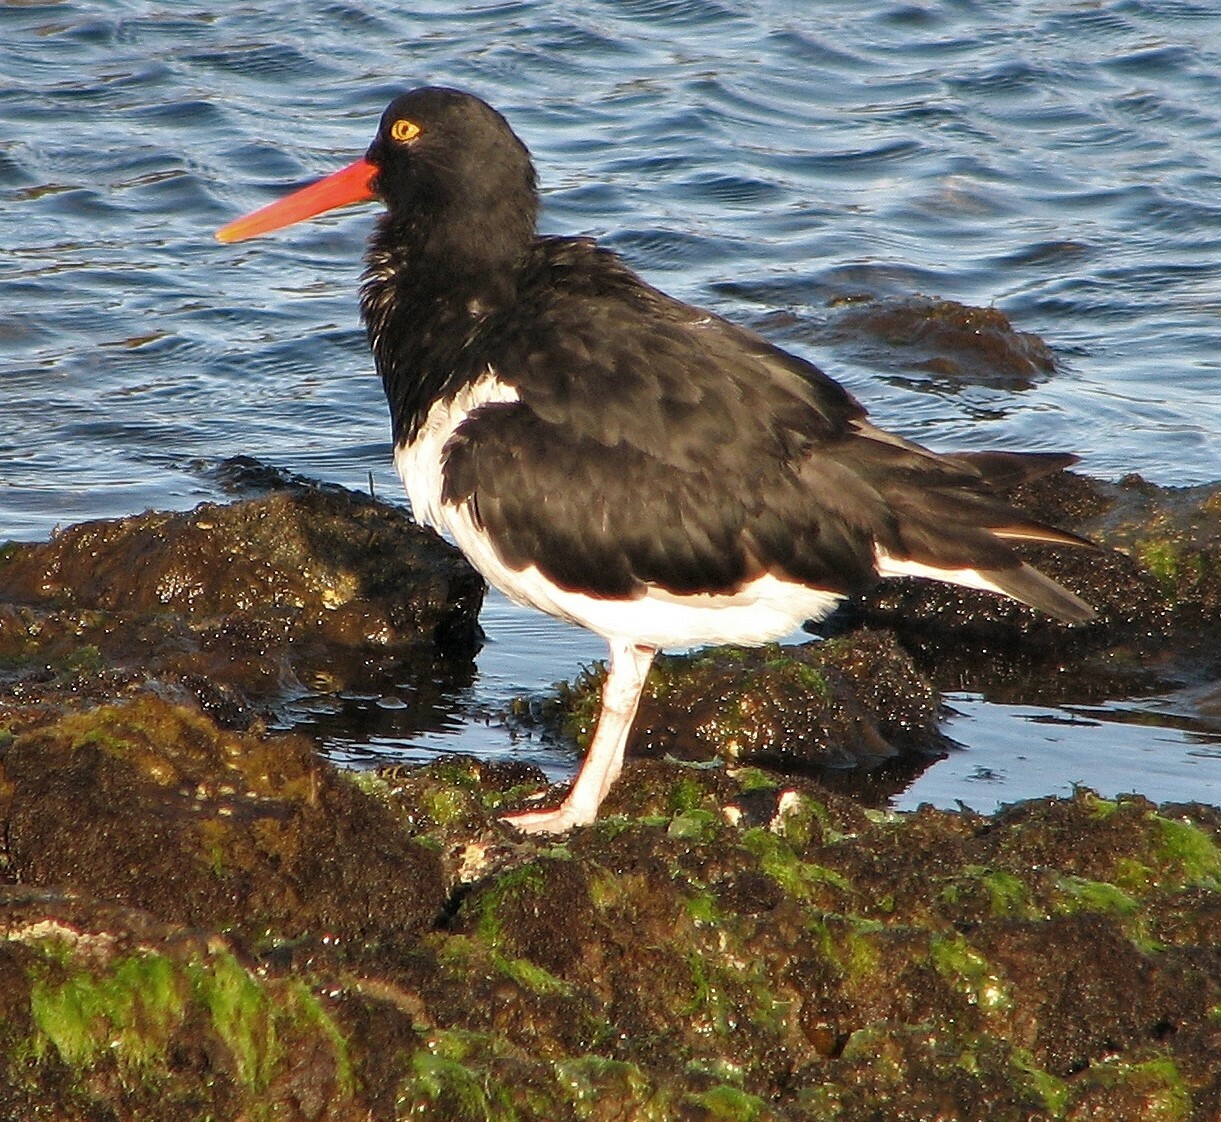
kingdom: Animalia
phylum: Chordata
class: Aves
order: Charadriiformes
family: Haematopodidae
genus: Haematopus
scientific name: Haematopus leucopodus
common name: Magellanic oystercatcher
